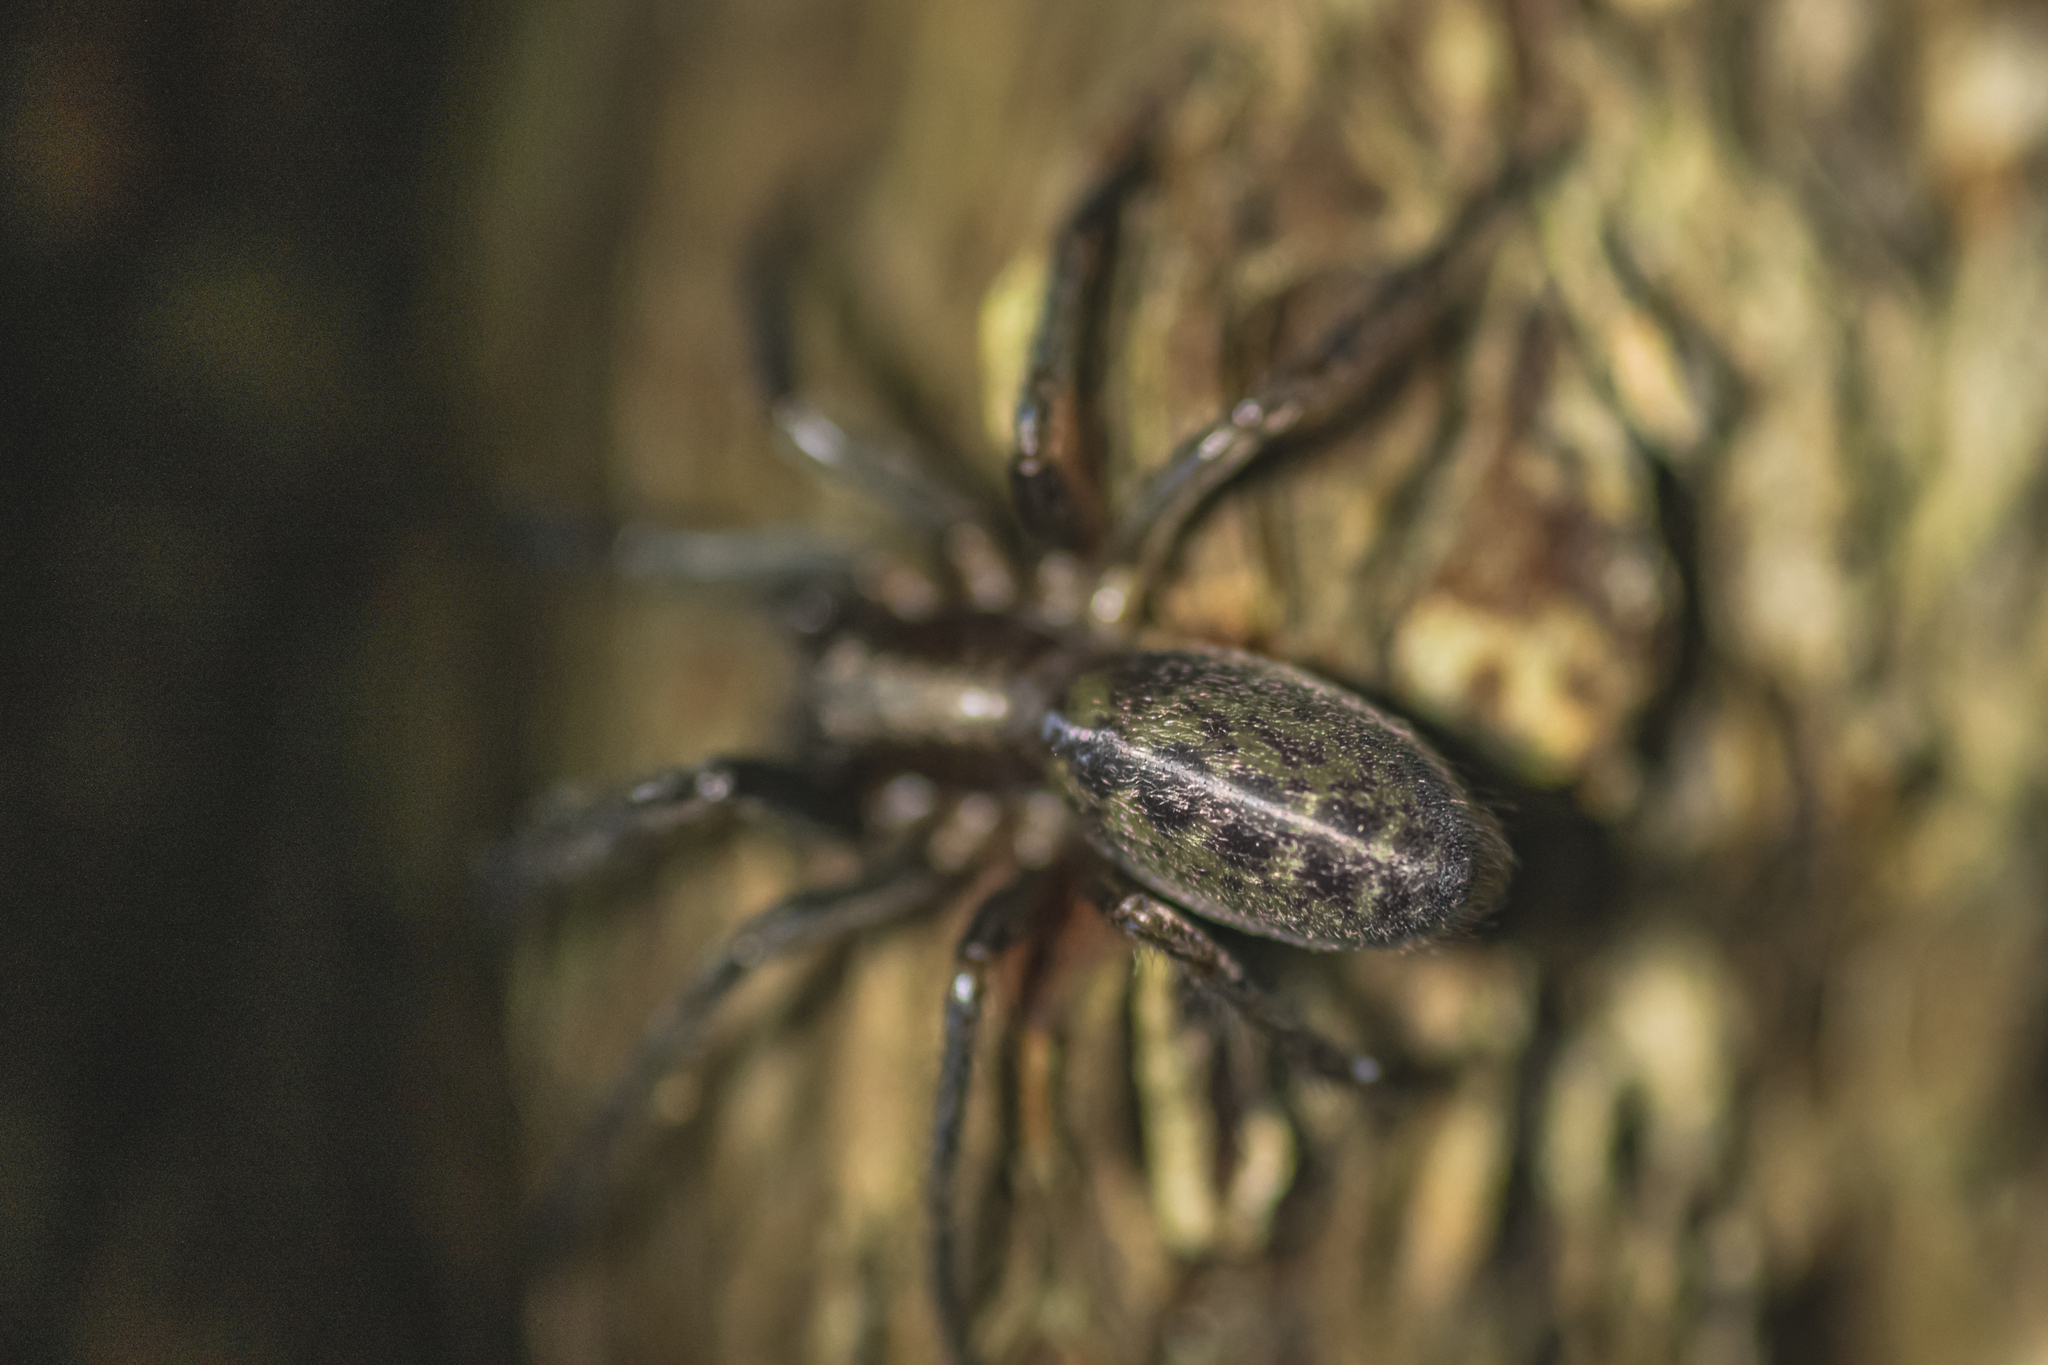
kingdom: Animalia
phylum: Arthropoda
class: Arachnida
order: Araneae
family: Segestriidae
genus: Segestria
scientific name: Segestria florentina
